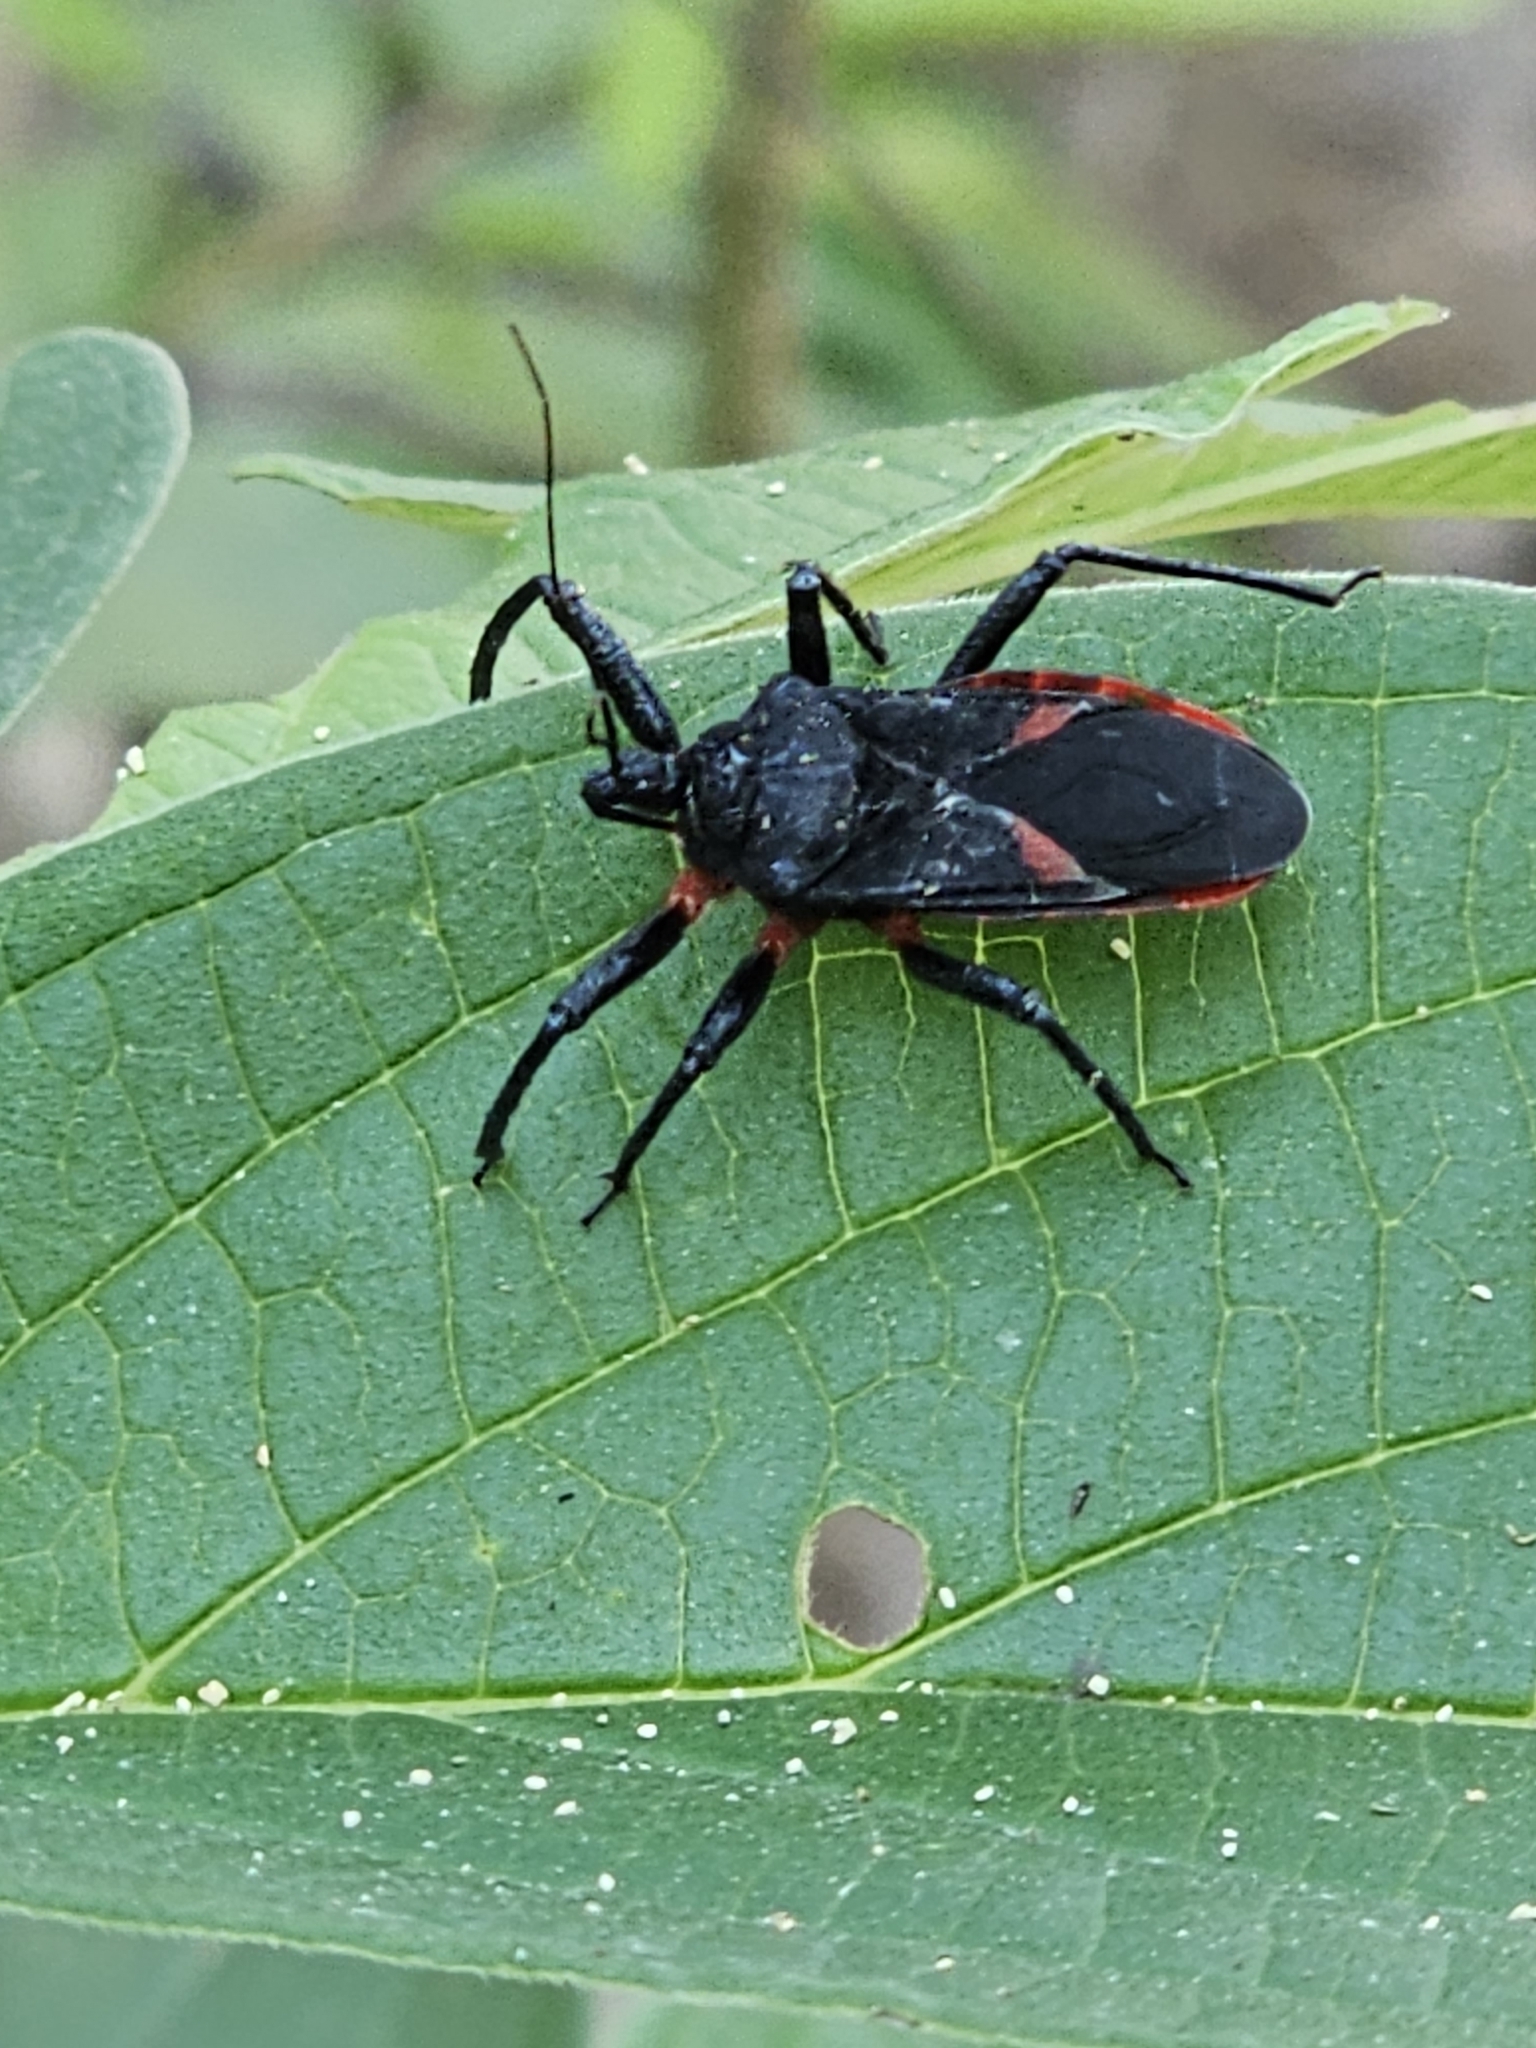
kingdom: Animalia
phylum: Arthropoda
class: Insecta
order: Hemiptera
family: Reduviidae
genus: Micrauchenus
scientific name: Micrauchenus lineola
